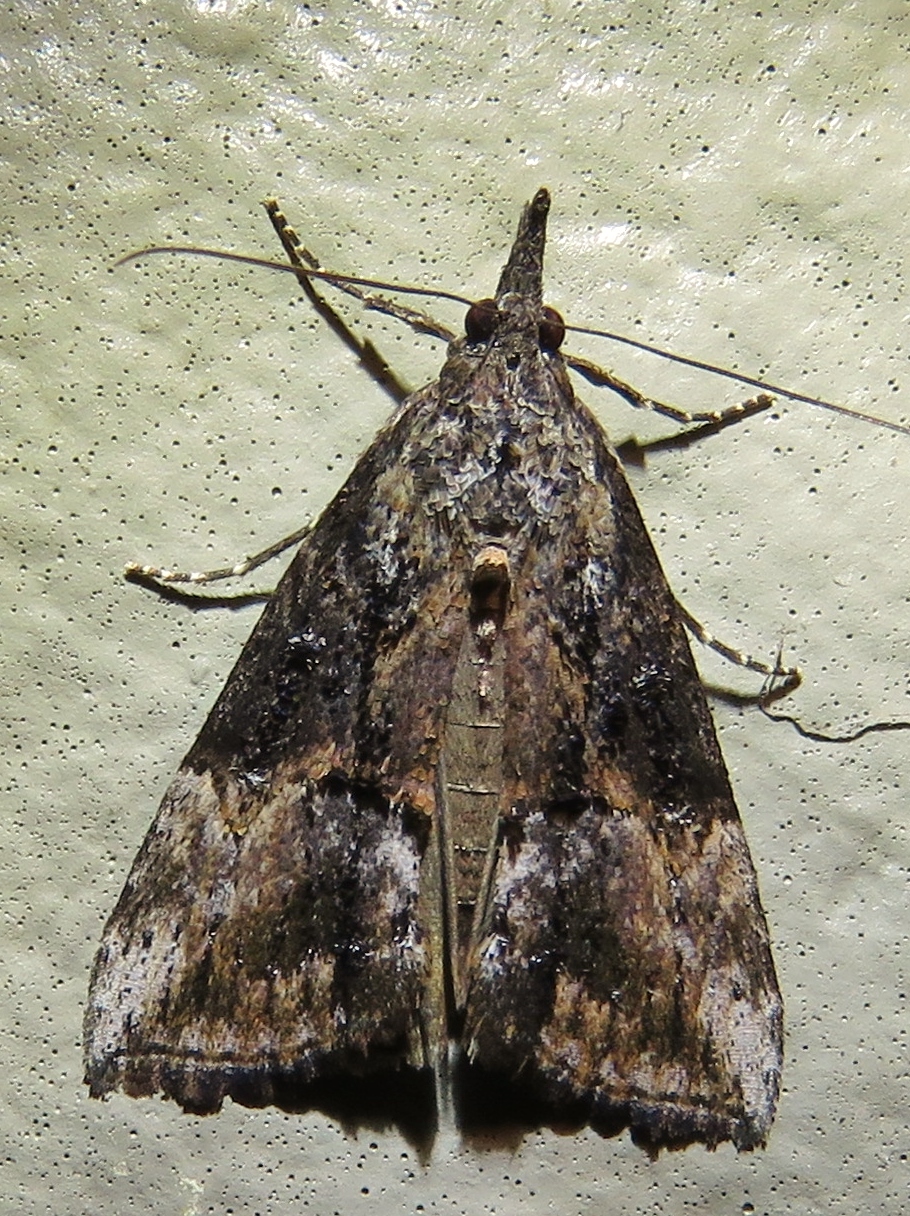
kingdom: Animalia
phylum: Arthropoda
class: Insecta
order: Lepidoptera
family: Erebidae
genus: Hypena
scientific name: Hypena scabra
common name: Green cloverworm
